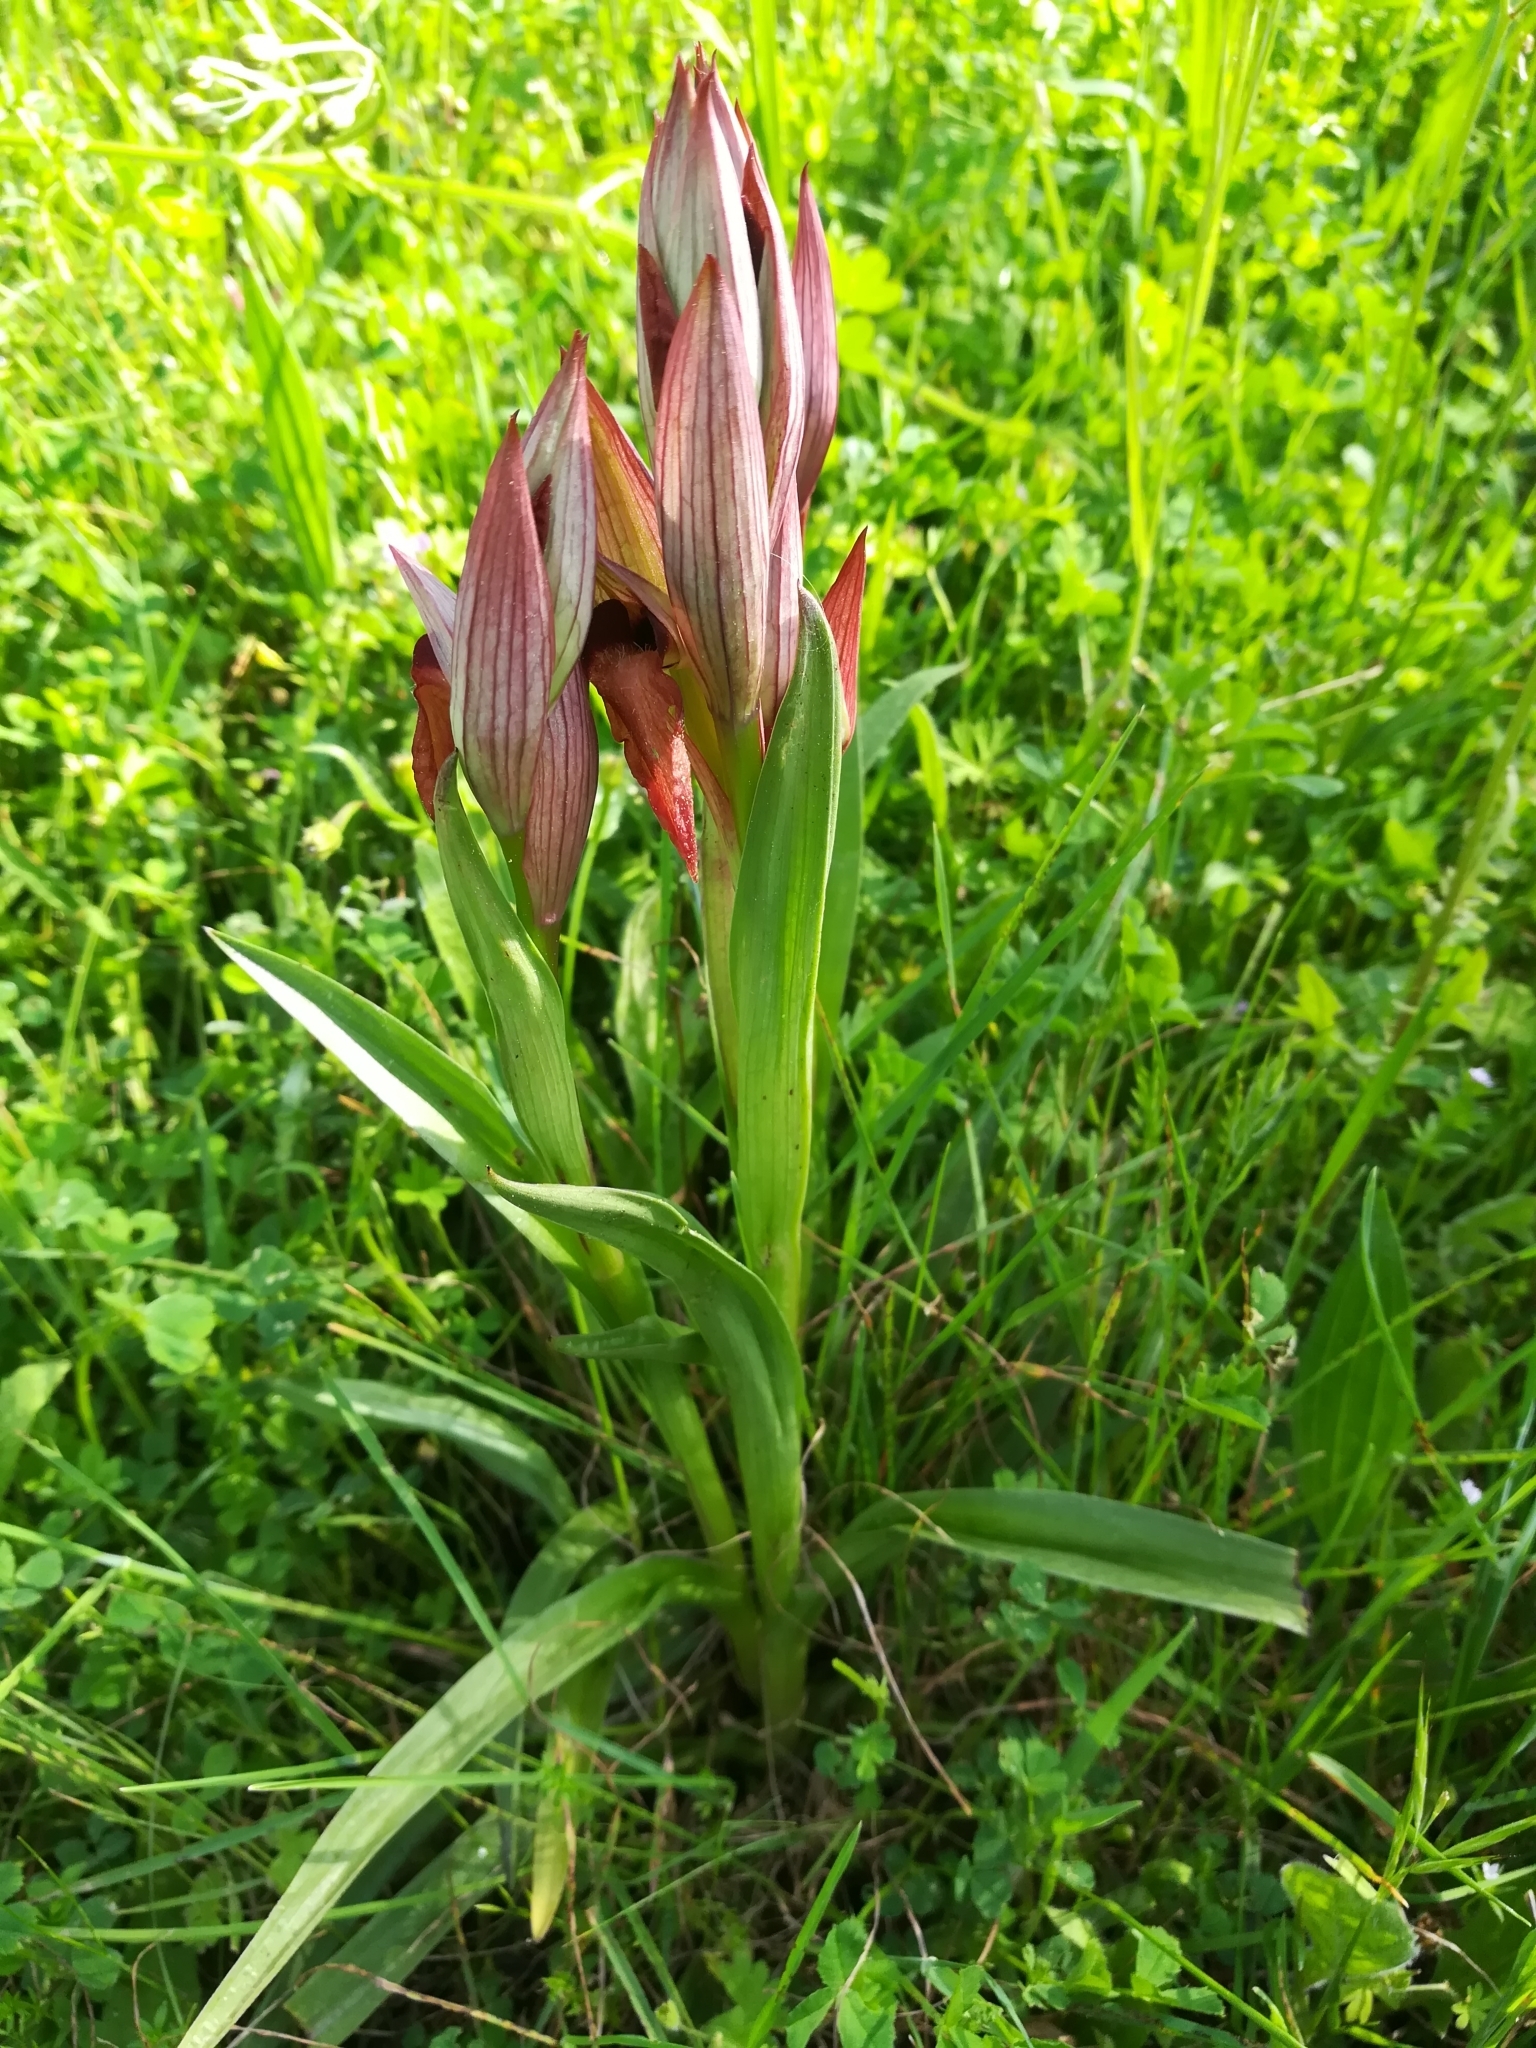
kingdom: Plantae
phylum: Tracheophyta
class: Liliopsida
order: Asparagales
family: Orchidaceae
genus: Serapias
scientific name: Serapias vomeracea
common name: Long-lipped tongue-orchid
